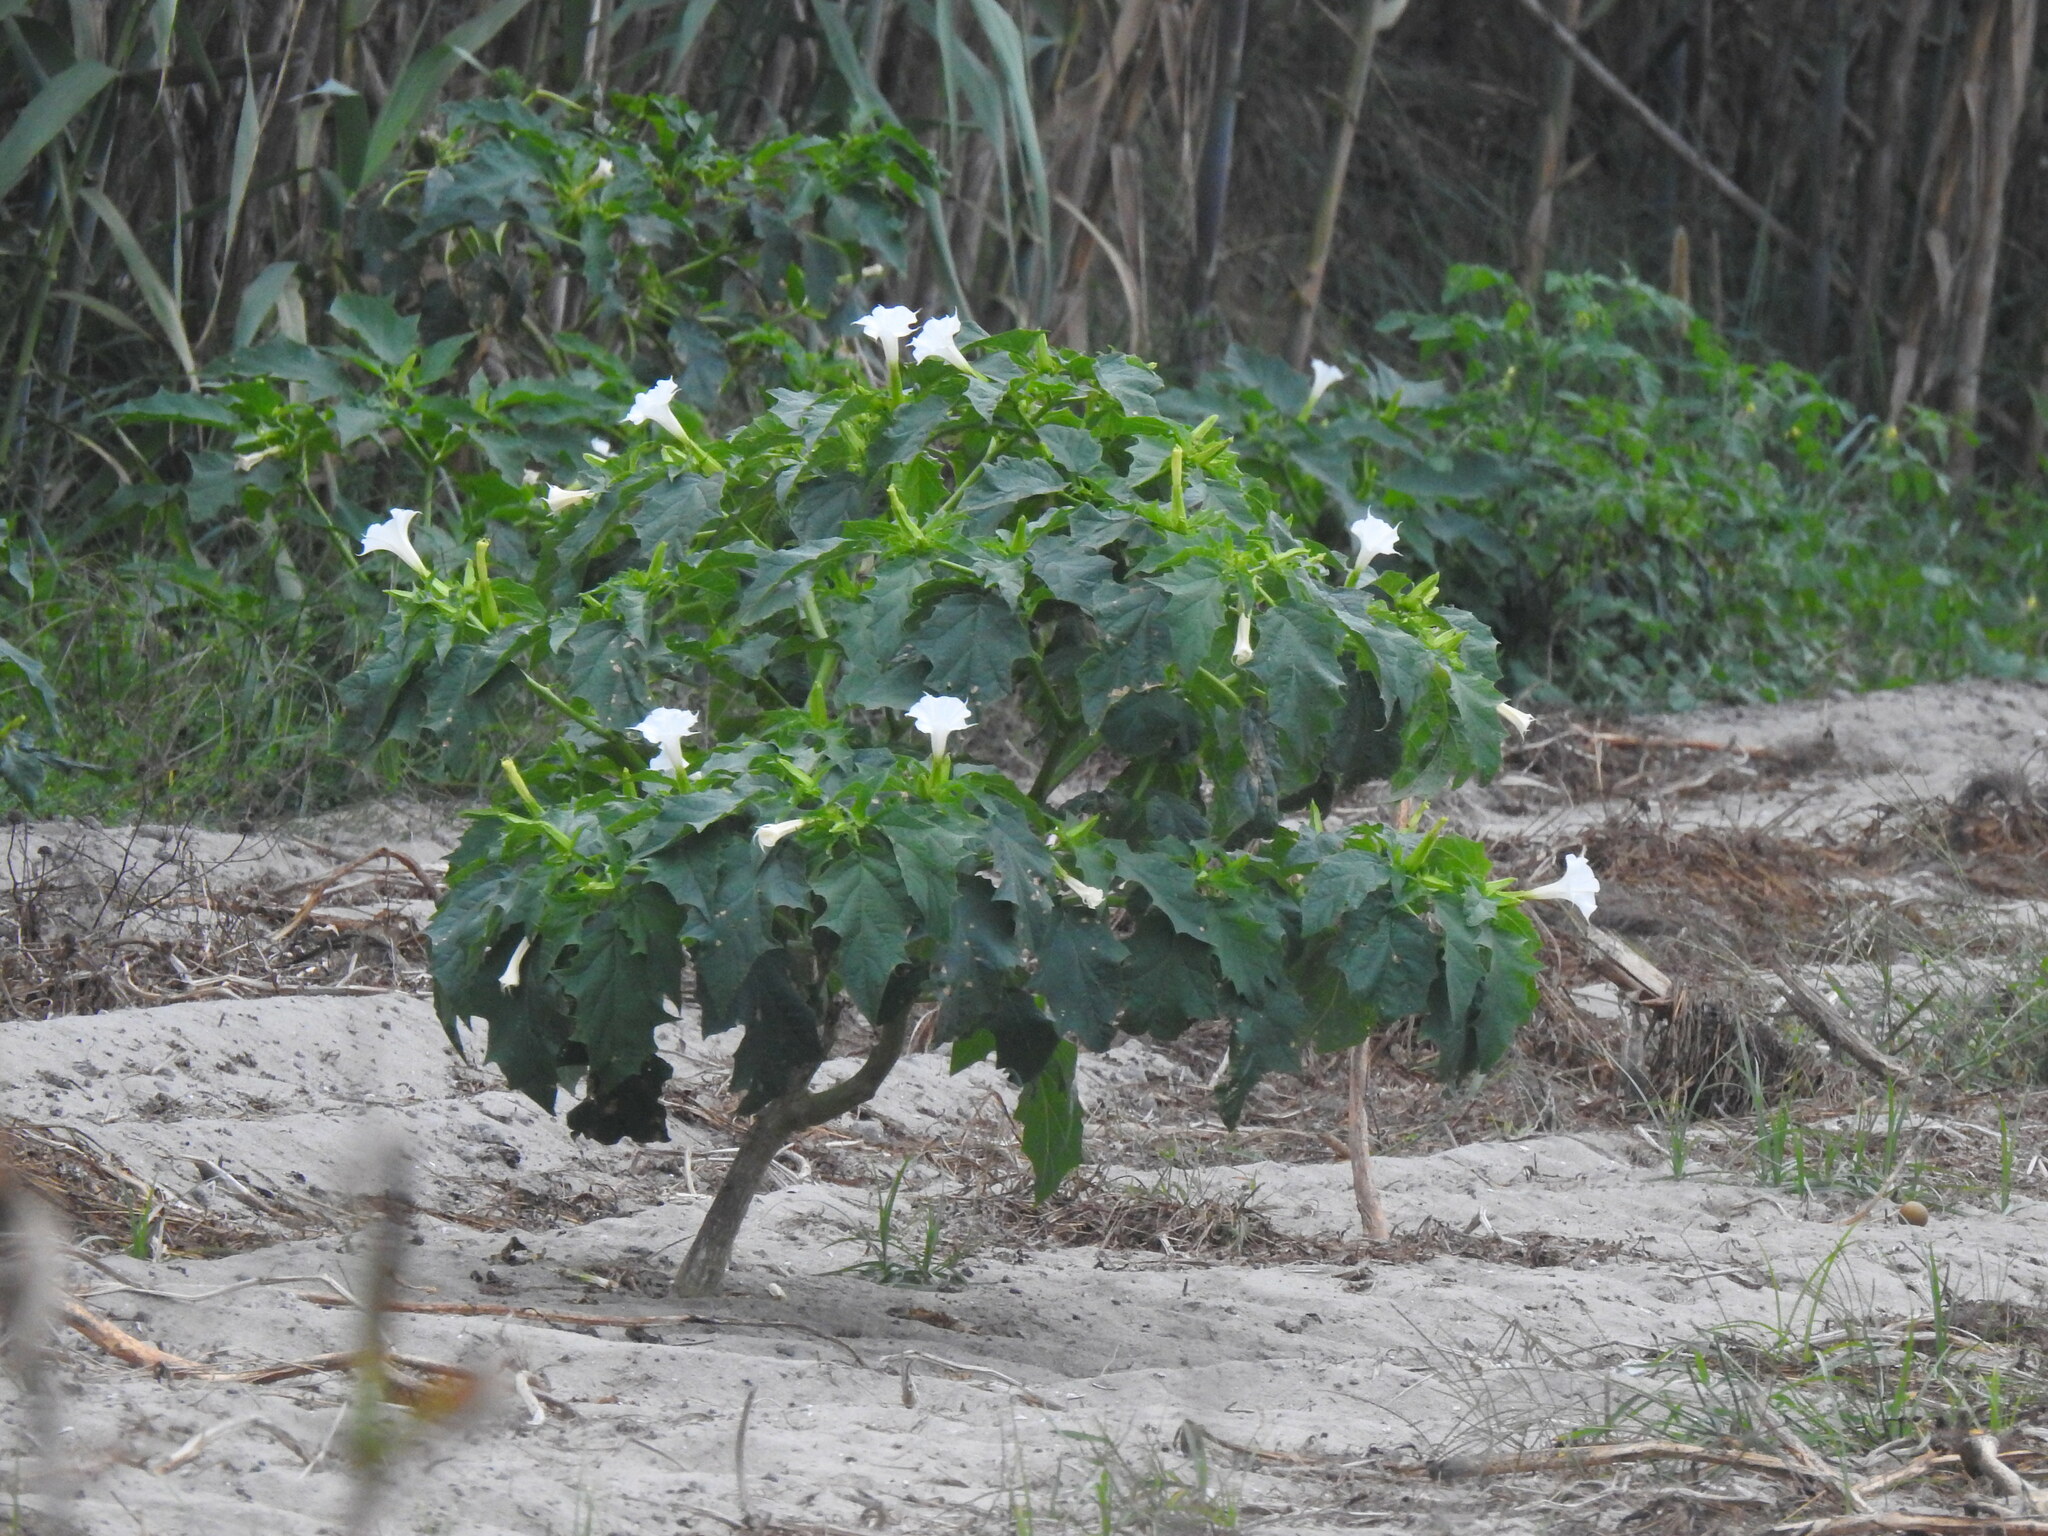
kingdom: Plantae
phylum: Tracheophyta
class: Magnoliopsida
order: Solanales
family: Solanaceae
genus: Datura
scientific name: Datura stramonium
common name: Thorn-apple
